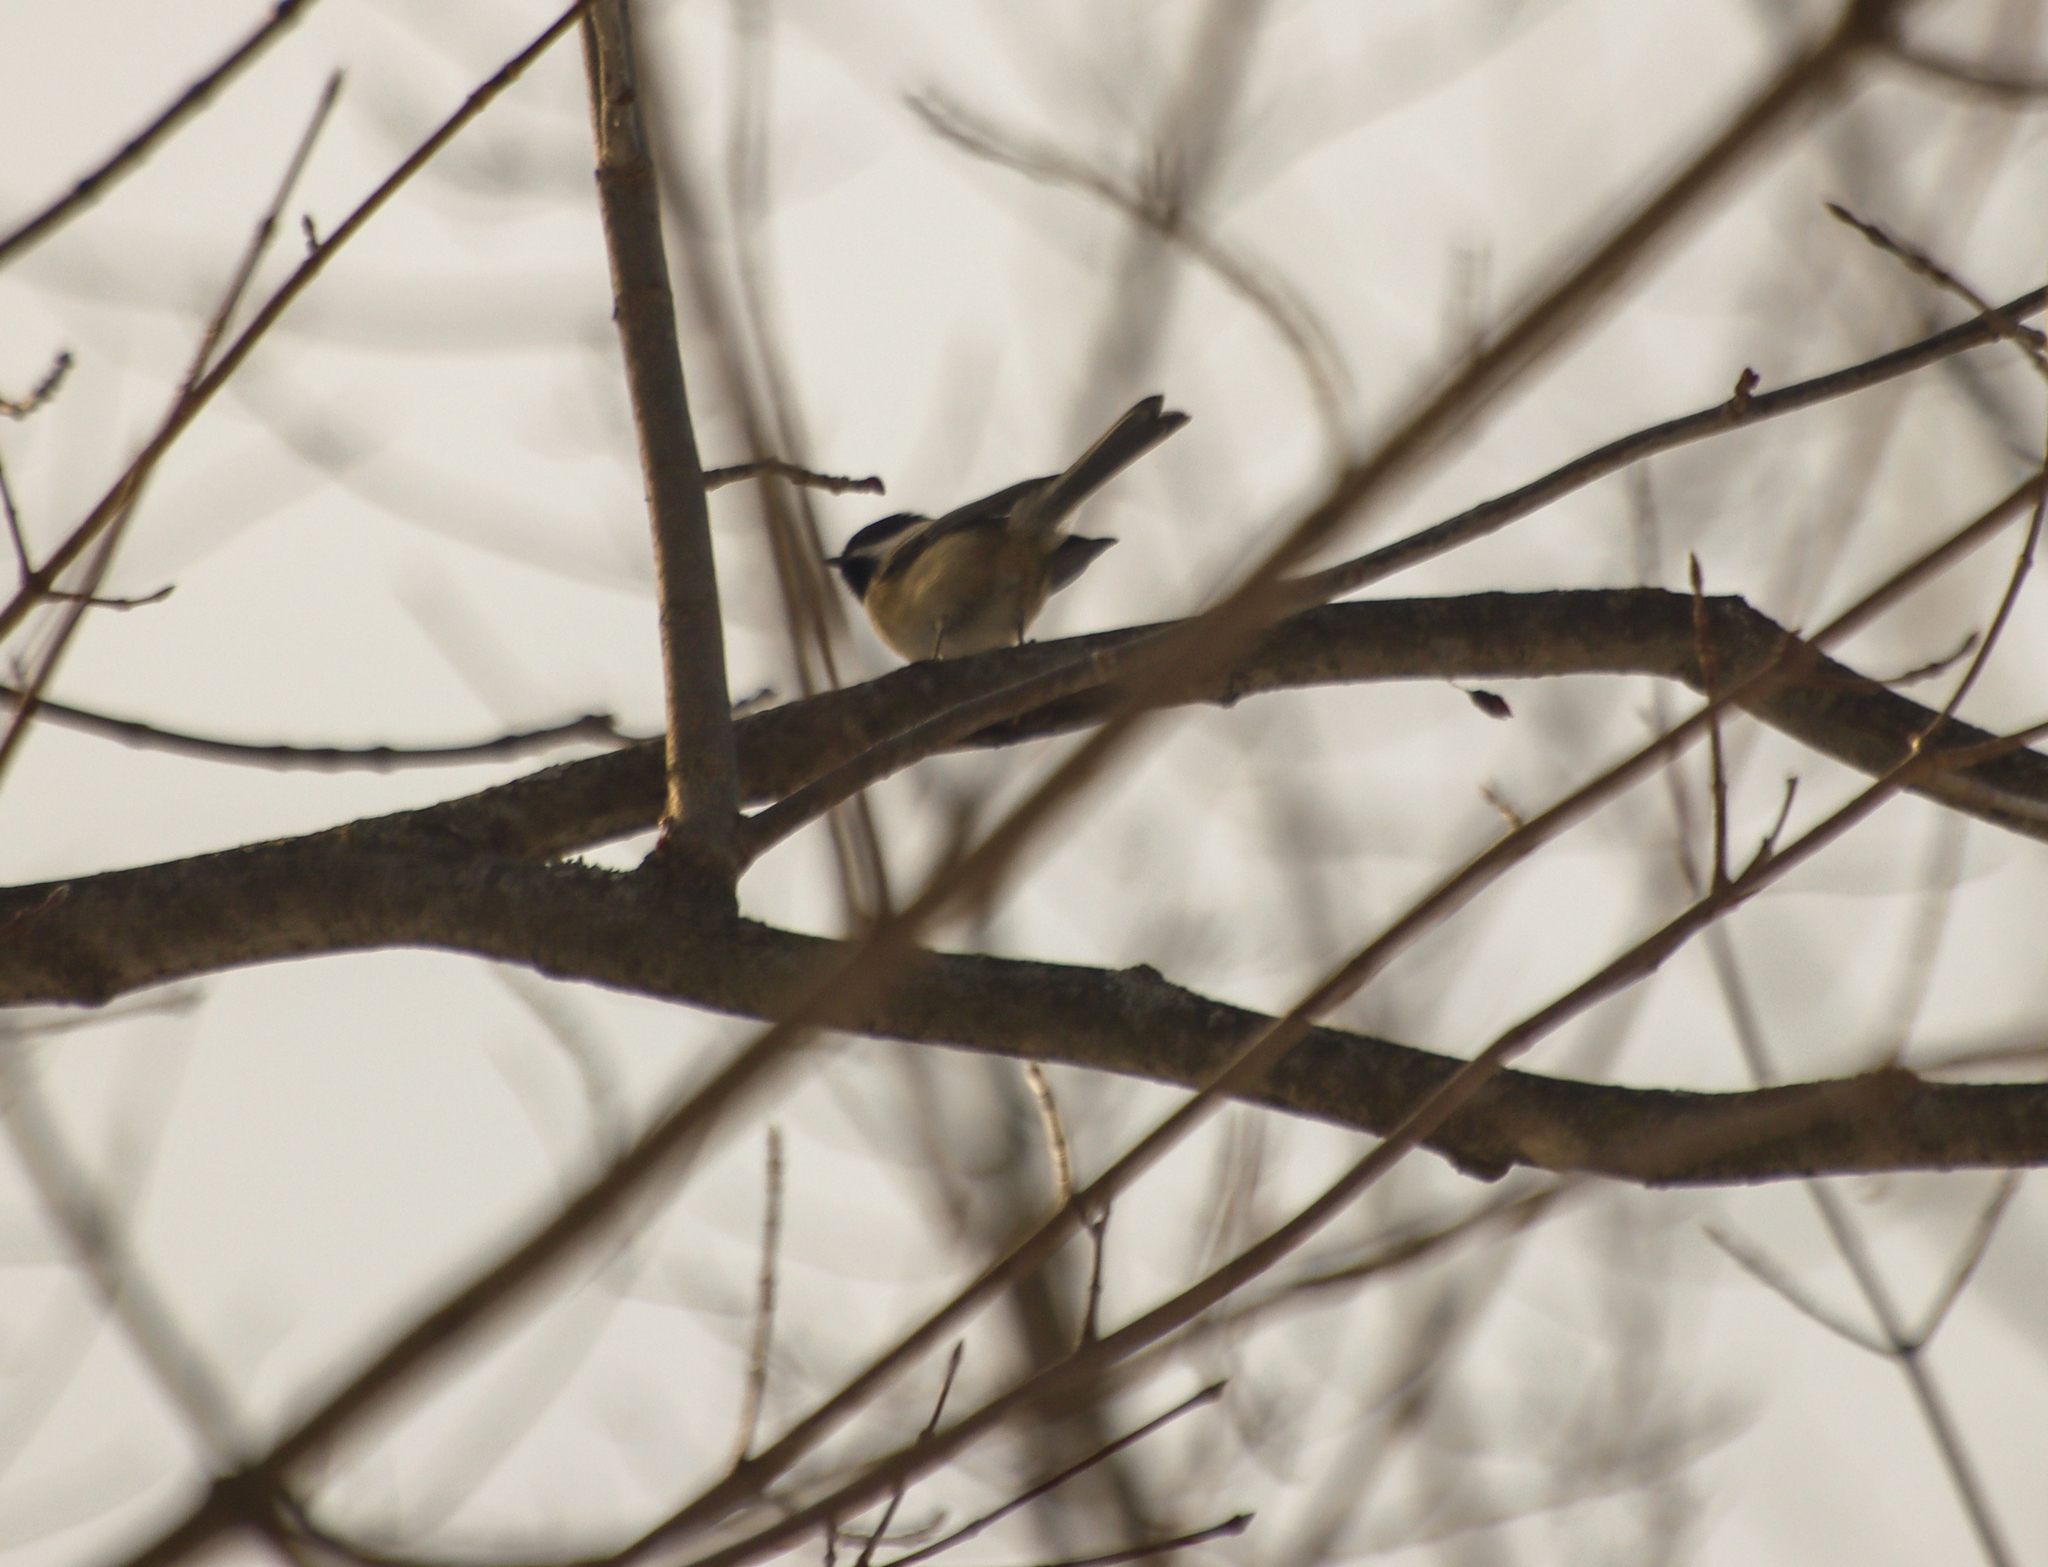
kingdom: Animalia
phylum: Chordata
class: Aves
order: Passeriformes
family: Paridae
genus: Poecile
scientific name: Poecile atricapillus
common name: Black-capped chickadee
